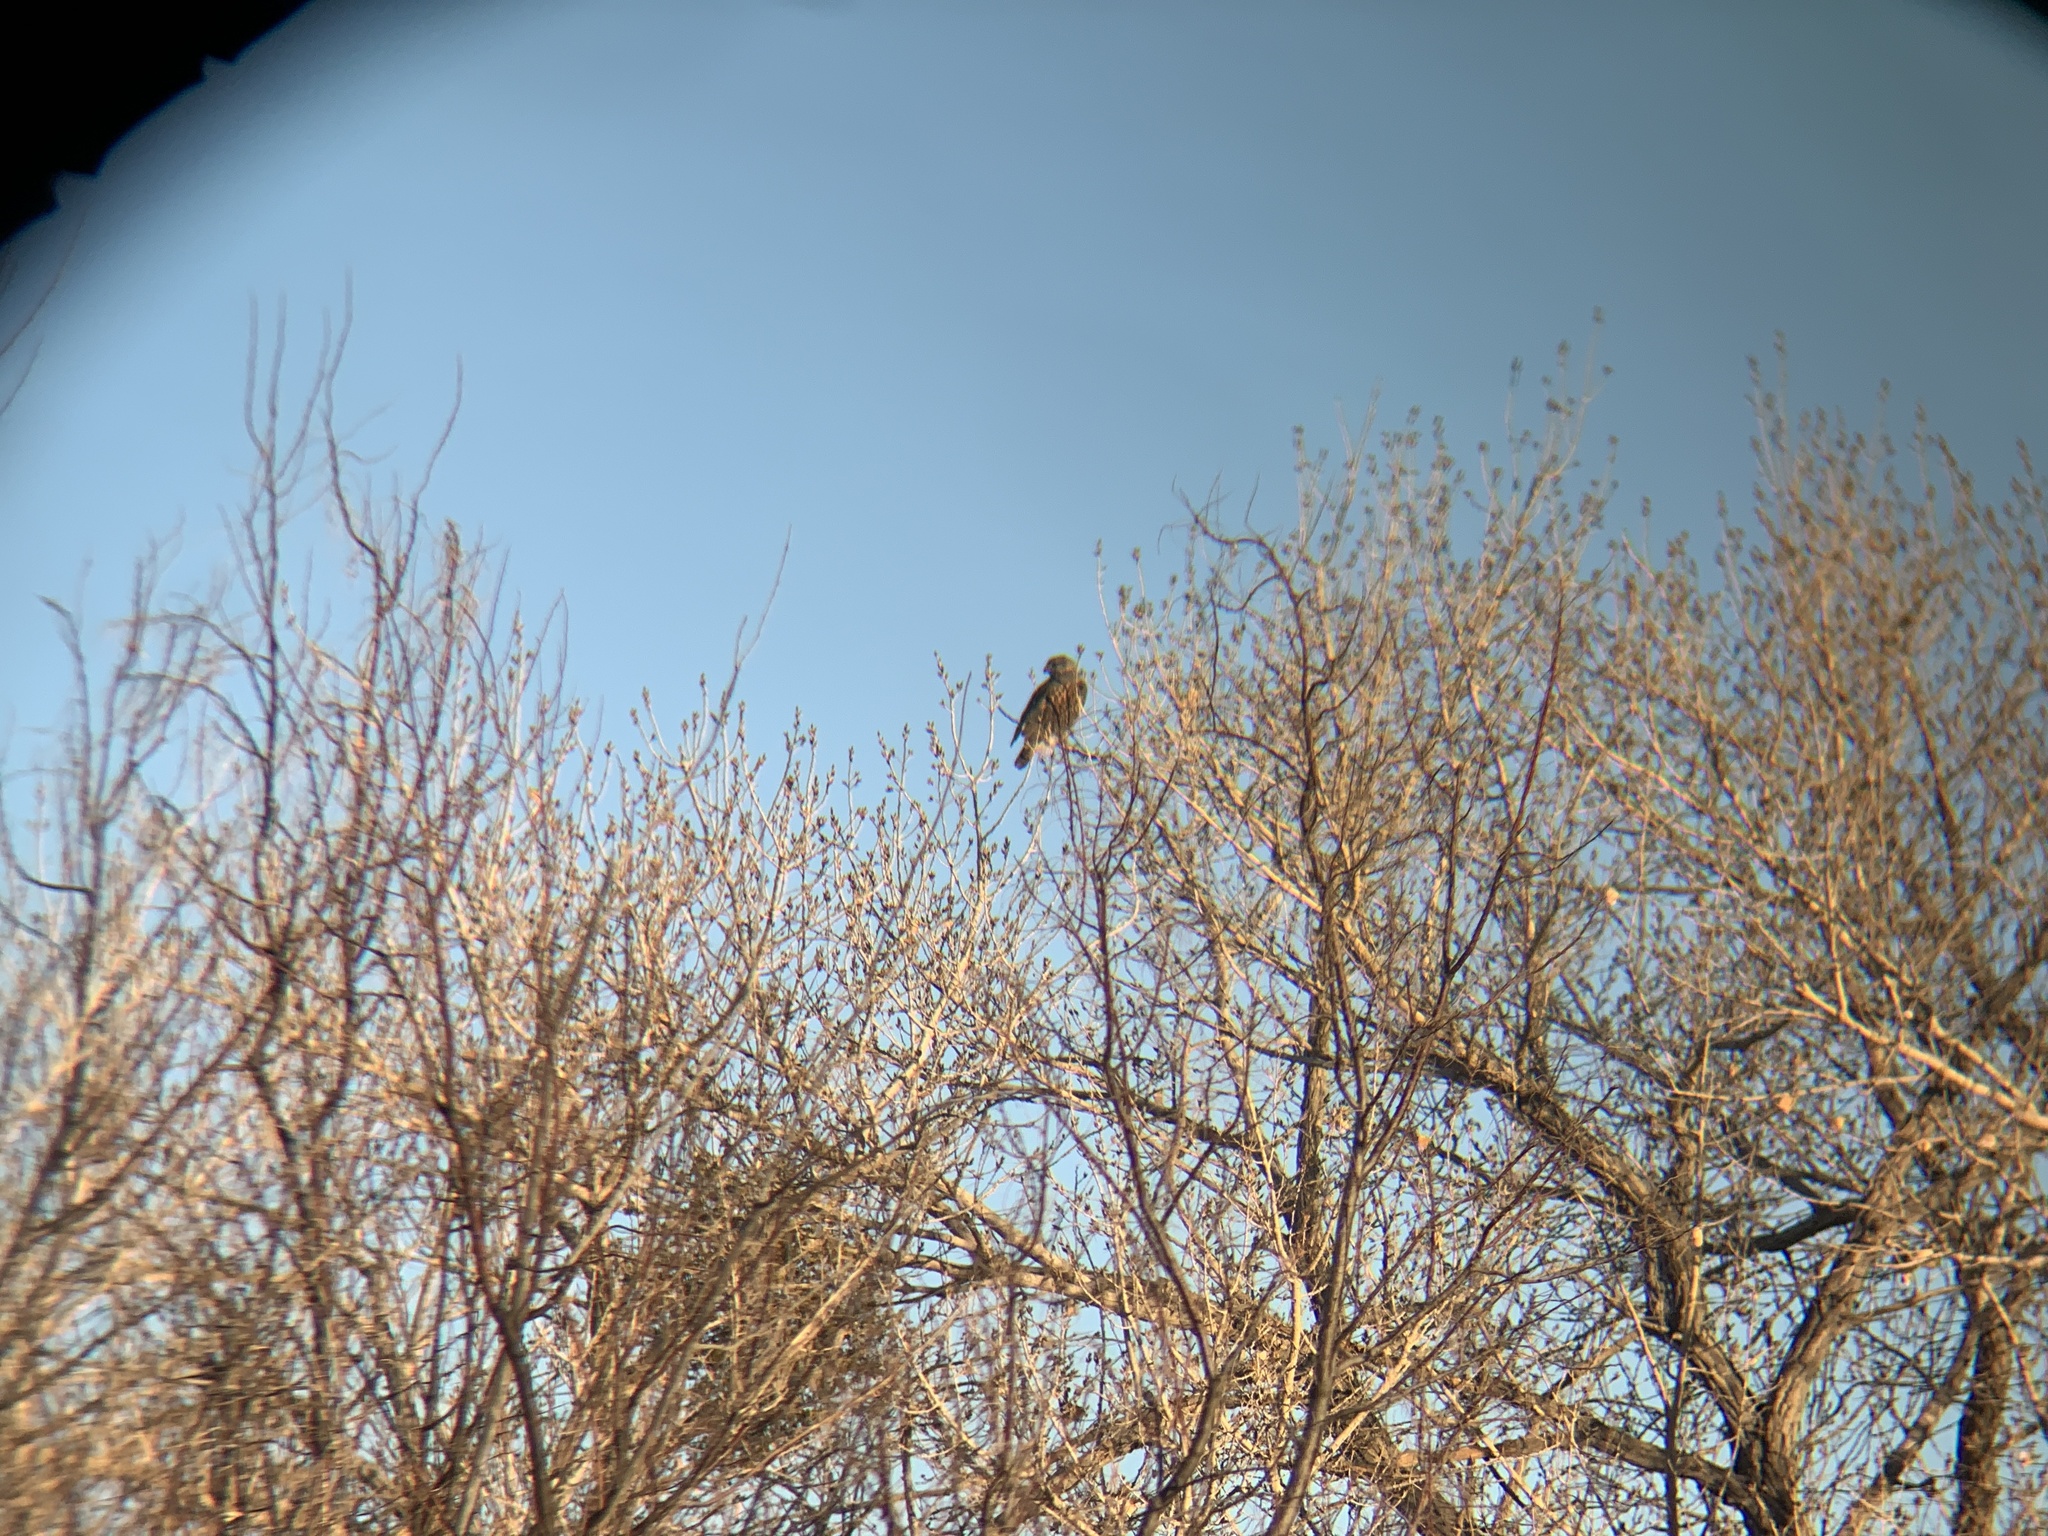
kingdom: Animalia
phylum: Chordata
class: Aves
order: Accipitriformes
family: Accipitridae
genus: Buteo
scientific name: Buteo regalis
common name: Ferruginous hawk
